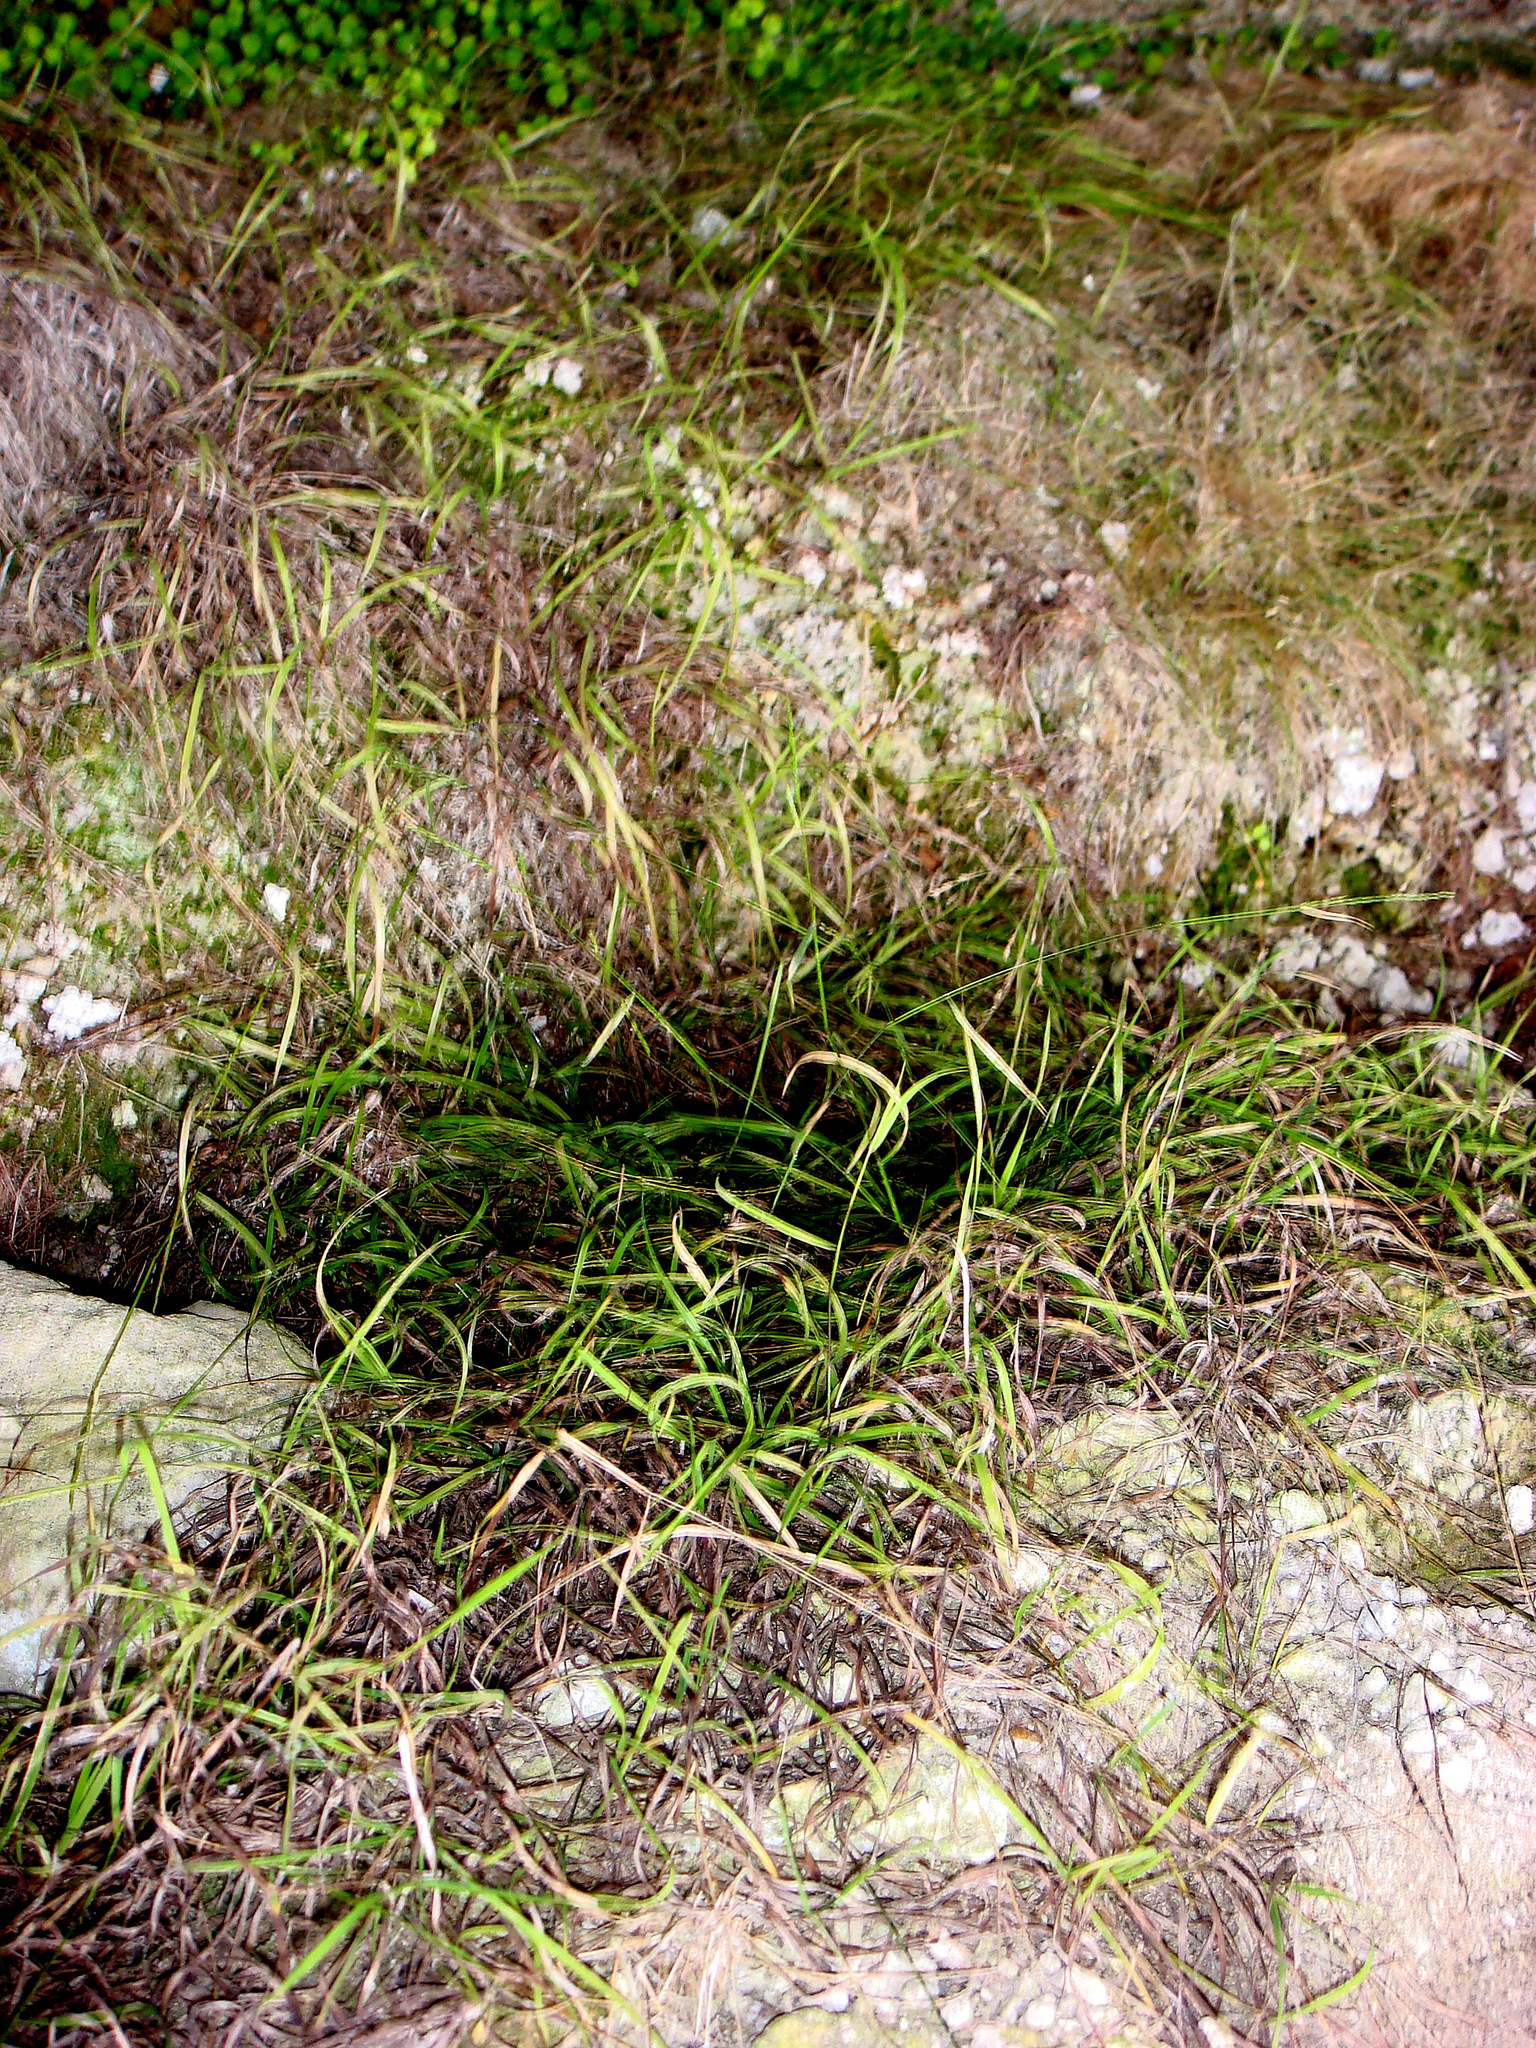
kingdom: Plantae
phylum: Tracheophyta
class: Liliopsida
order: Poales
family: Poaceae
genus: Simplicia
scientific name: Simplicia laxa
